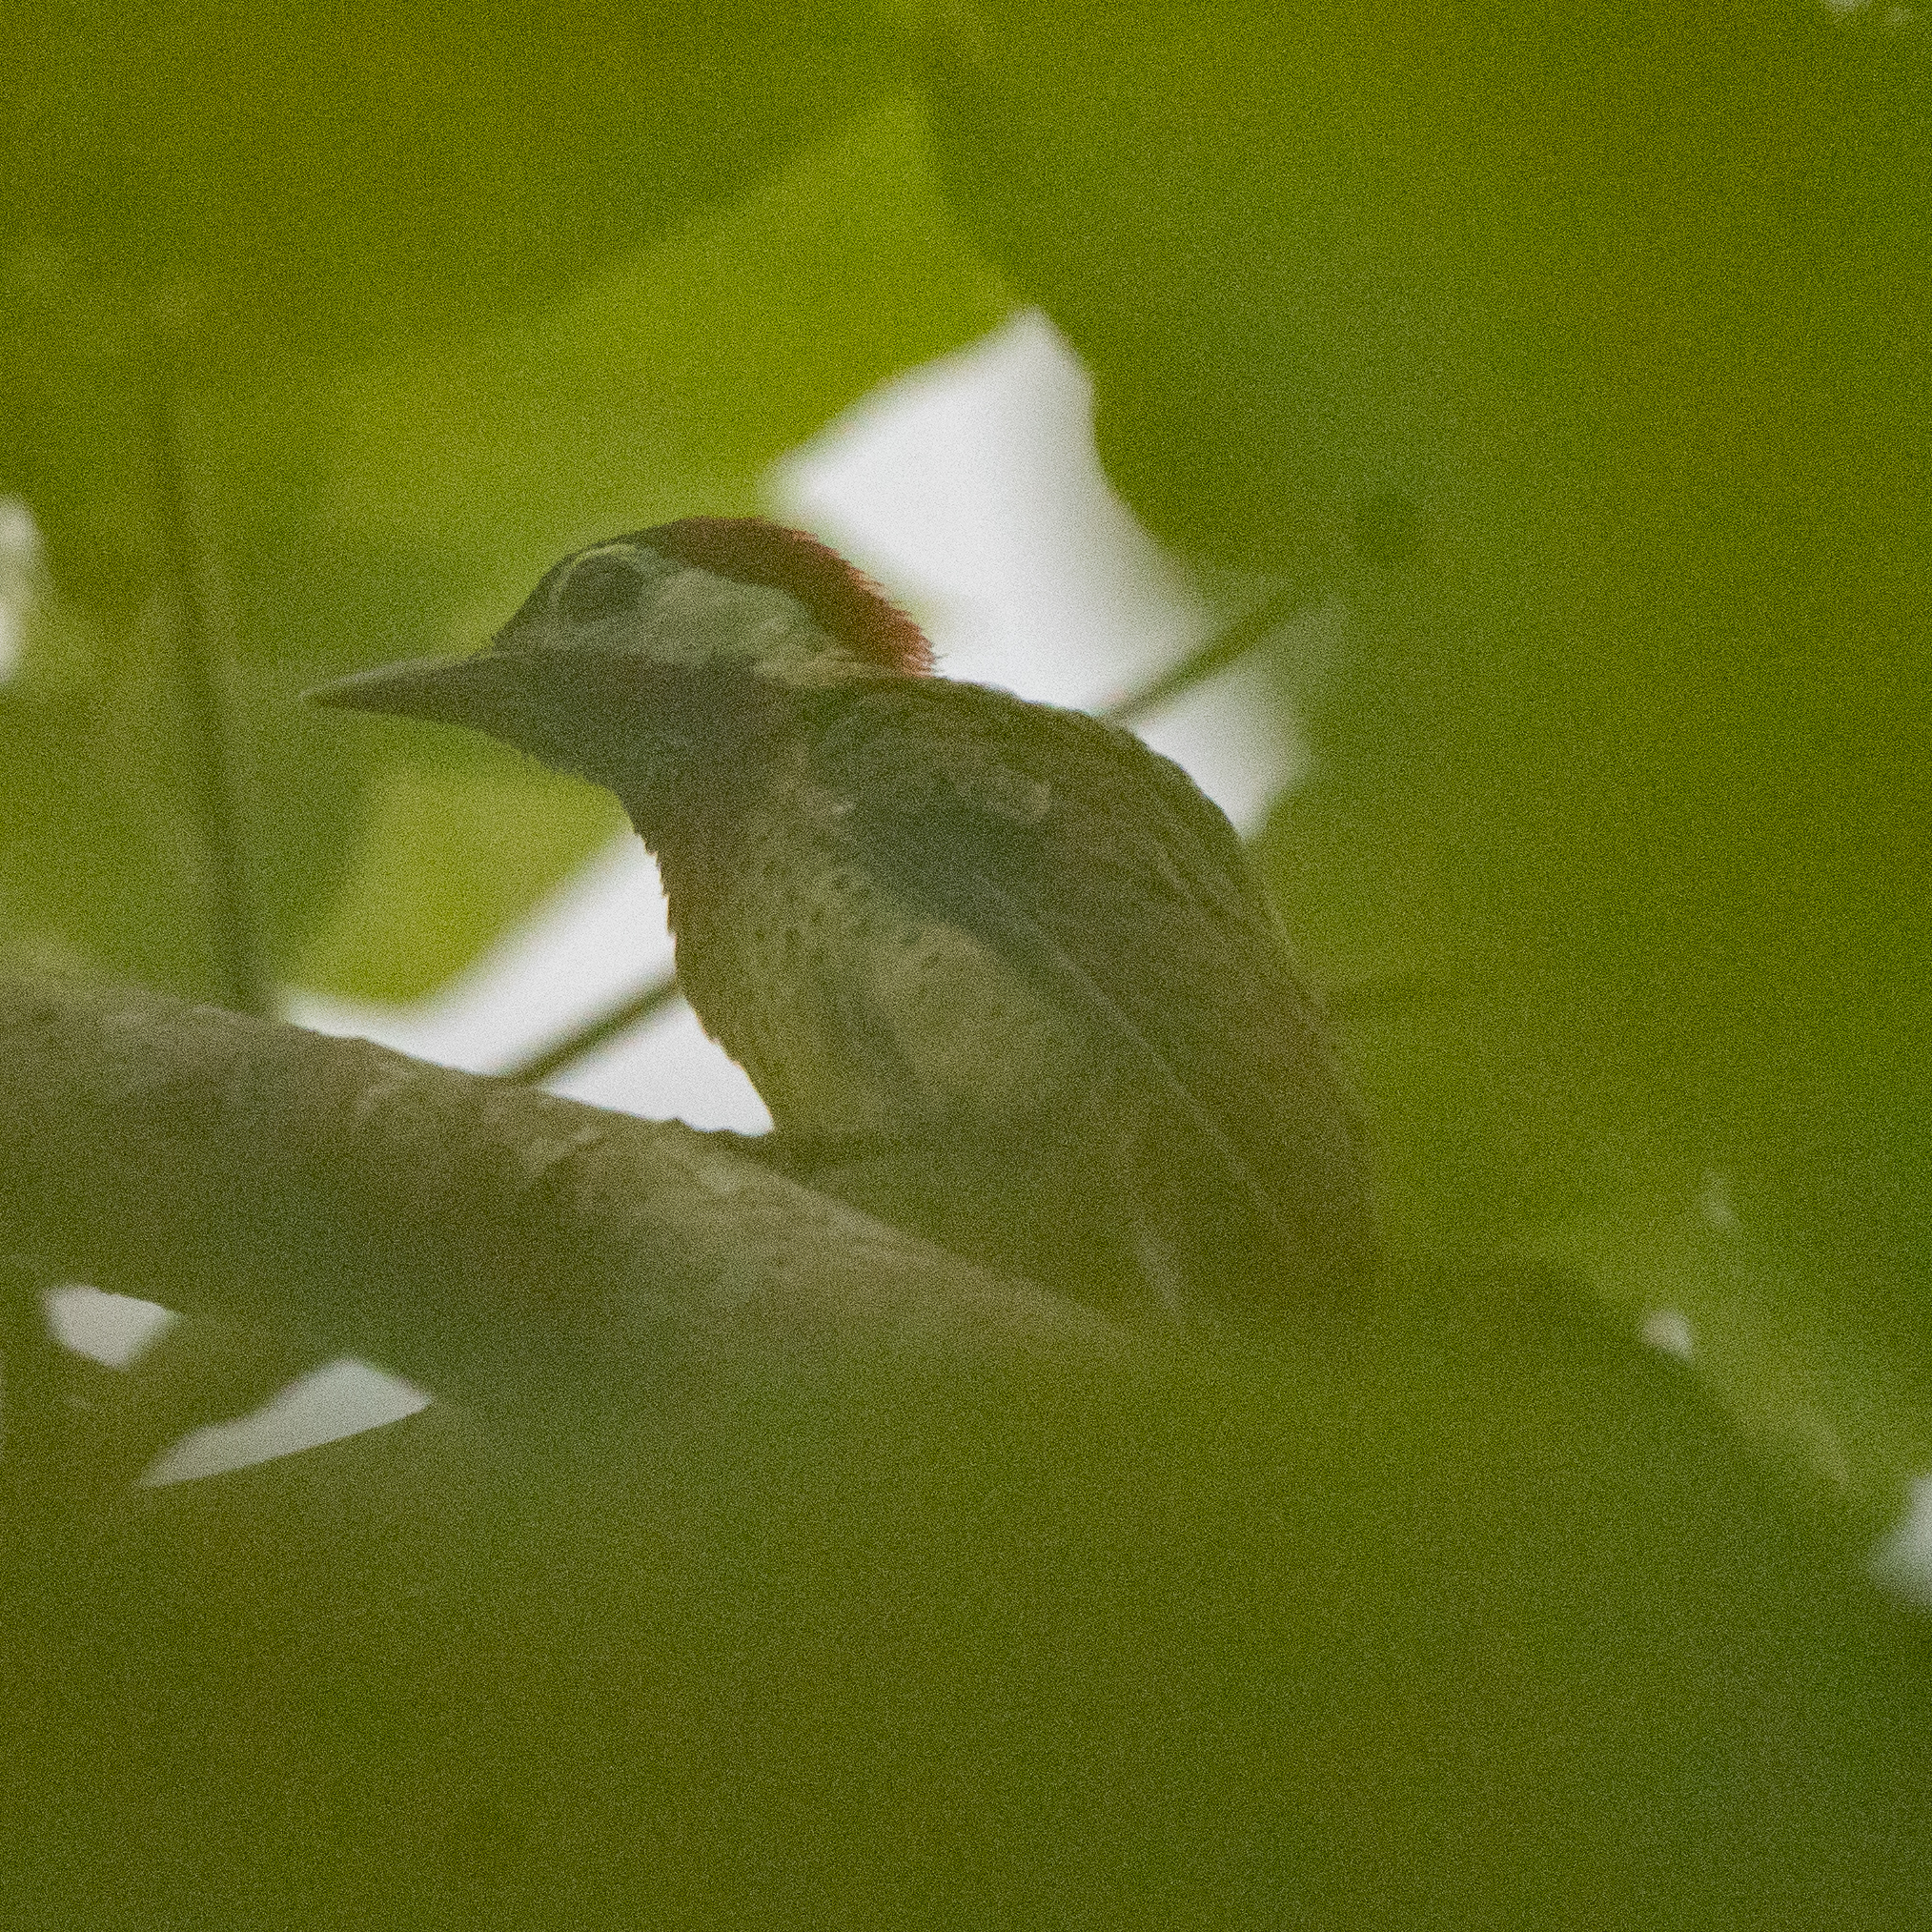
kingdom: Animalia
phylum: Chordata
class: Aves
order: Piciformes
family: Picidae
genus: Colaptes
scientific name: Colaptes punctigula
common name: Spot-breasted woodpecker
